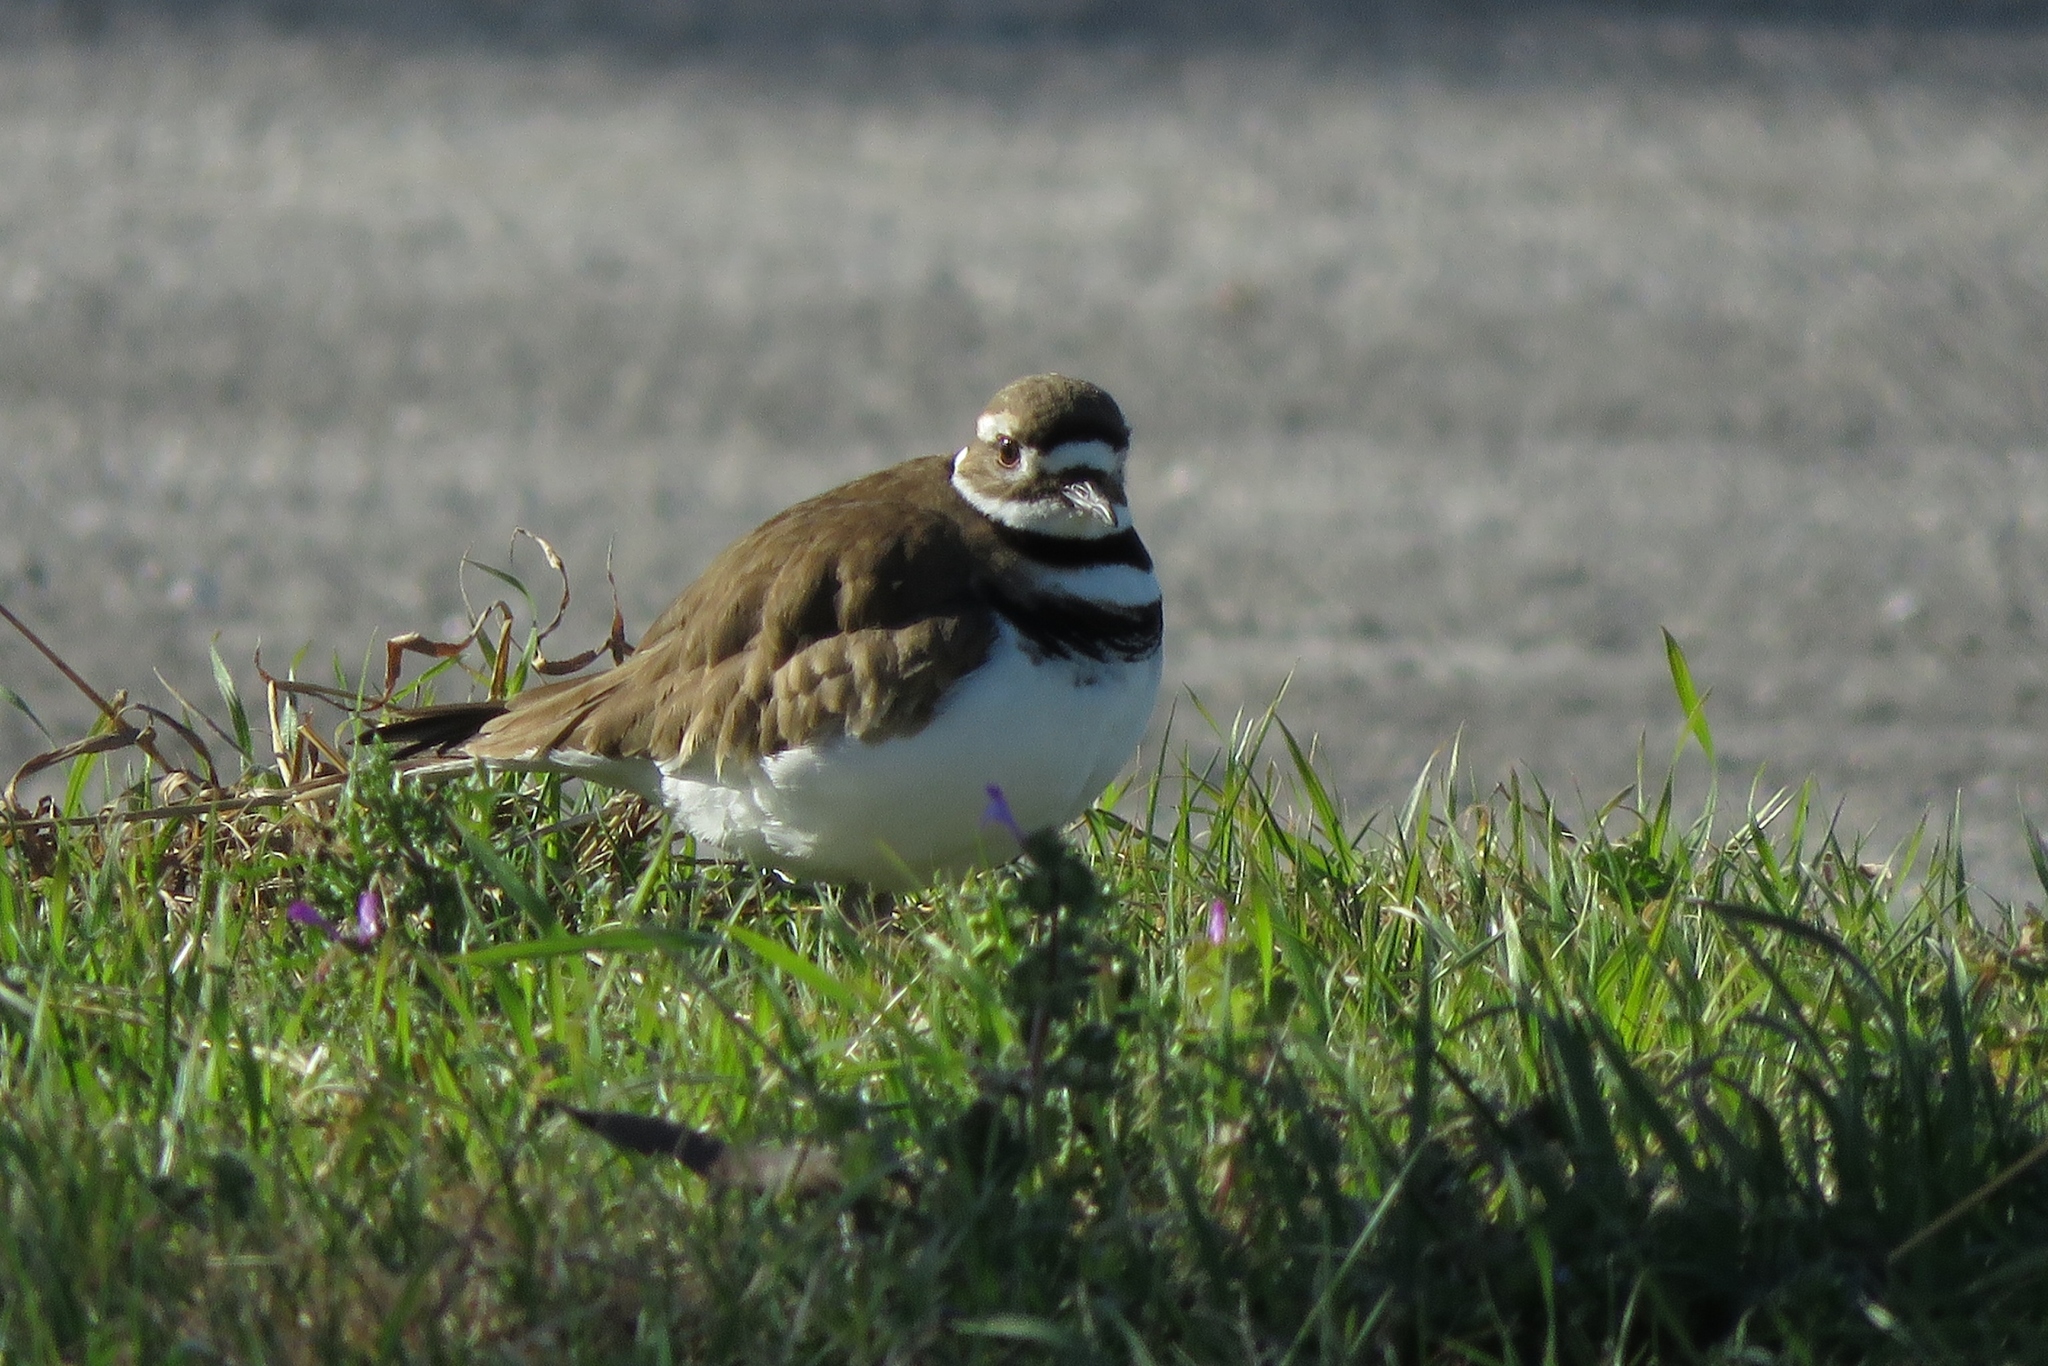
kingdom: Animalia
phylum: Chordata
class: Aves
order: Charadriiformes
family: Charadriidae
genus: Charadrius
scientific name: Charadrius vociferus
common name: Killdeer
